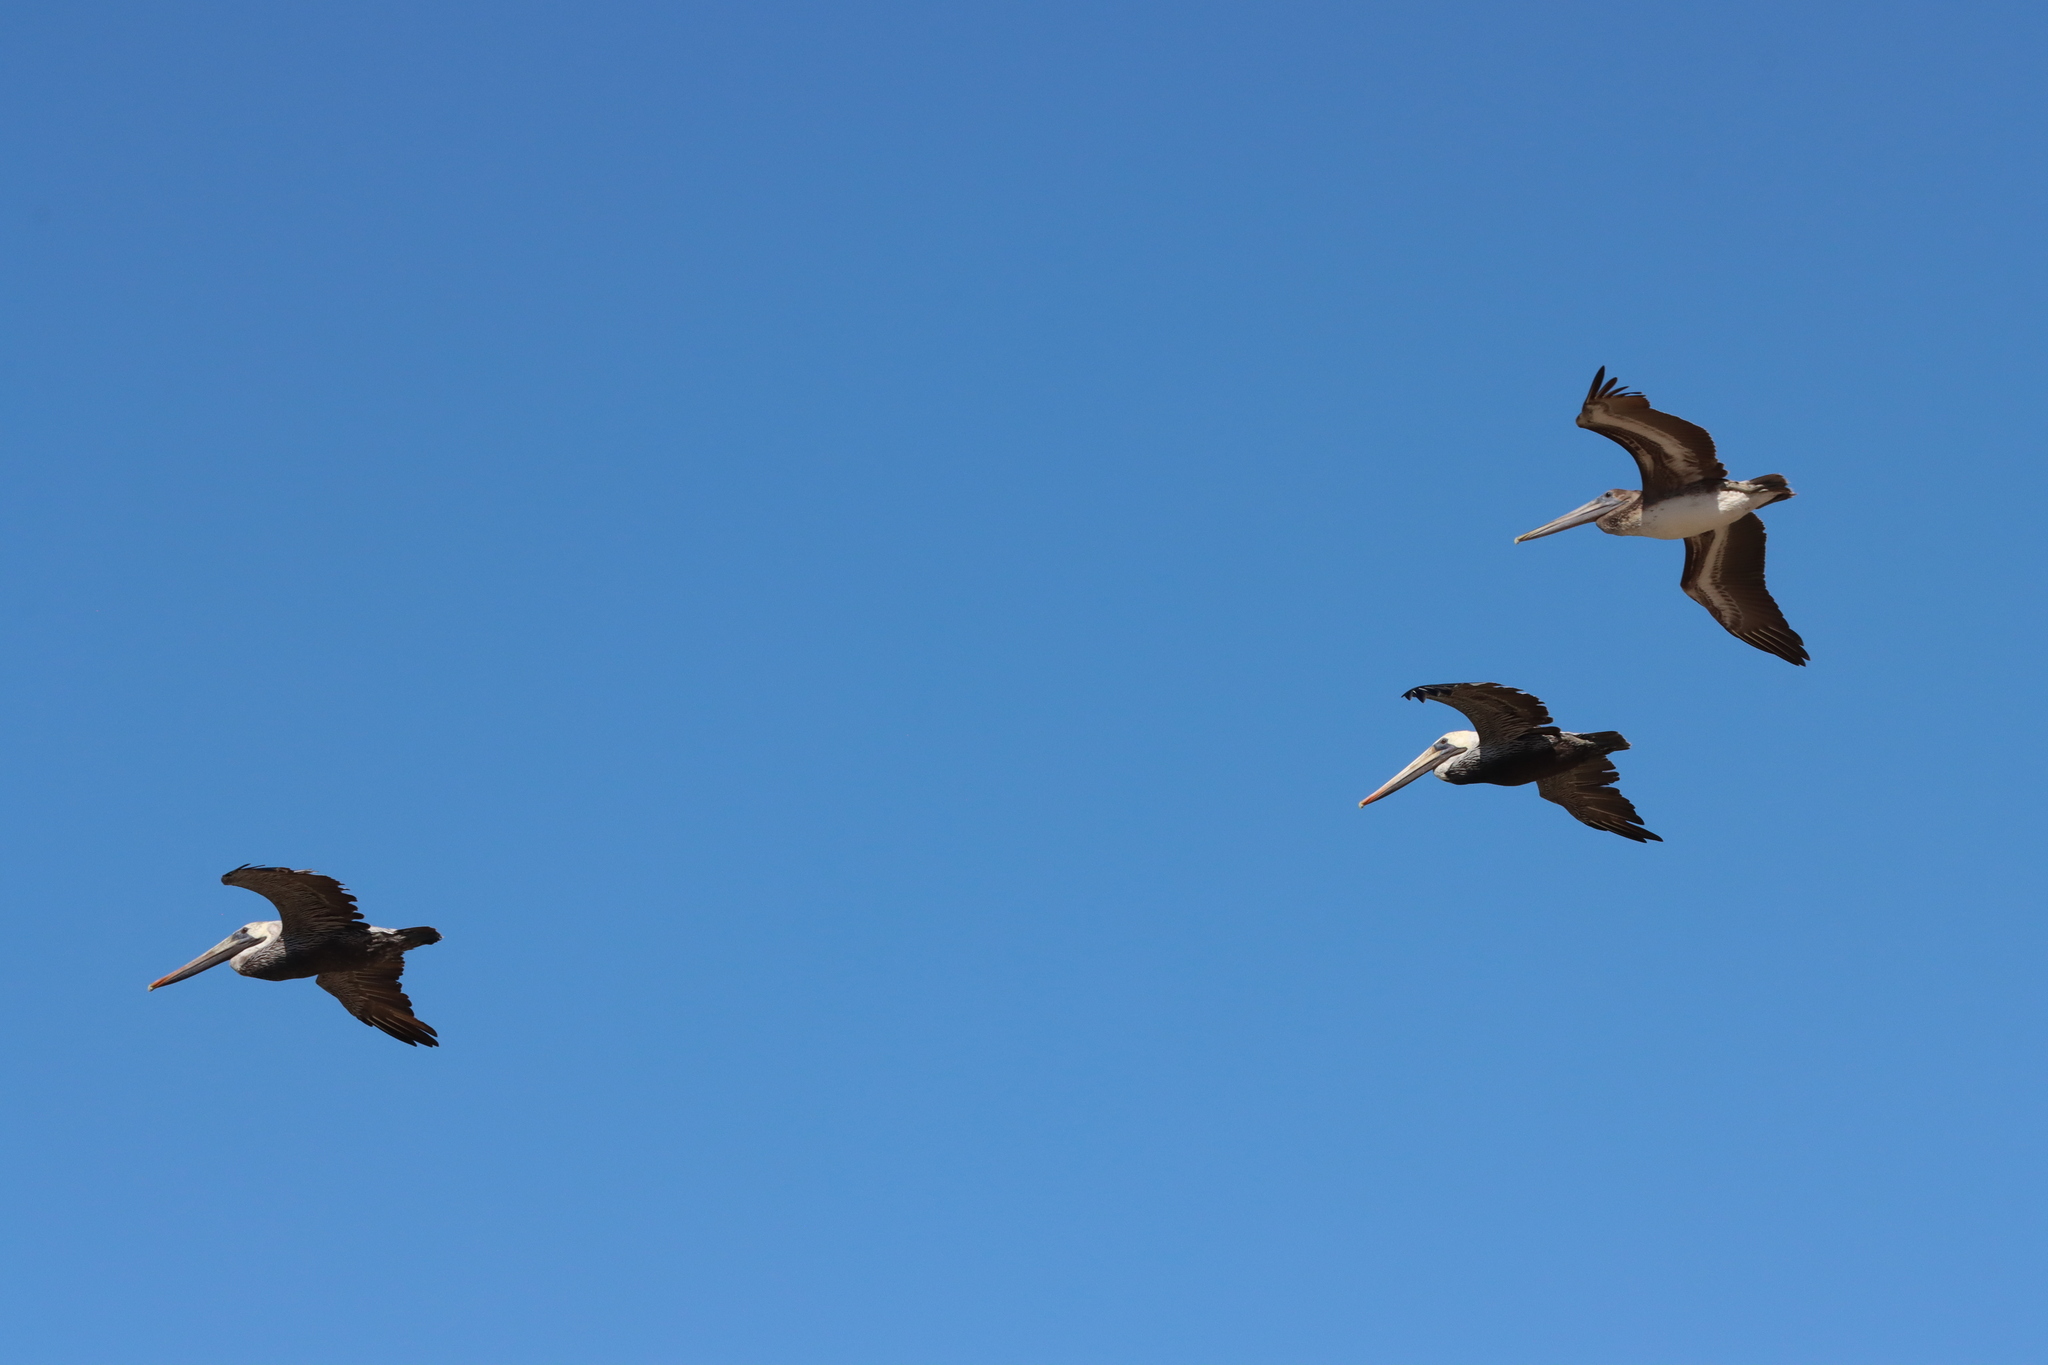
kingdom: Animalia
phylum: Chordata
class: Aves
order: Pelecaniformes
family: Pelecanidae
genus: Pelecanus
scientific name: Pelecanus occidentalis
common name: Brown pelican
